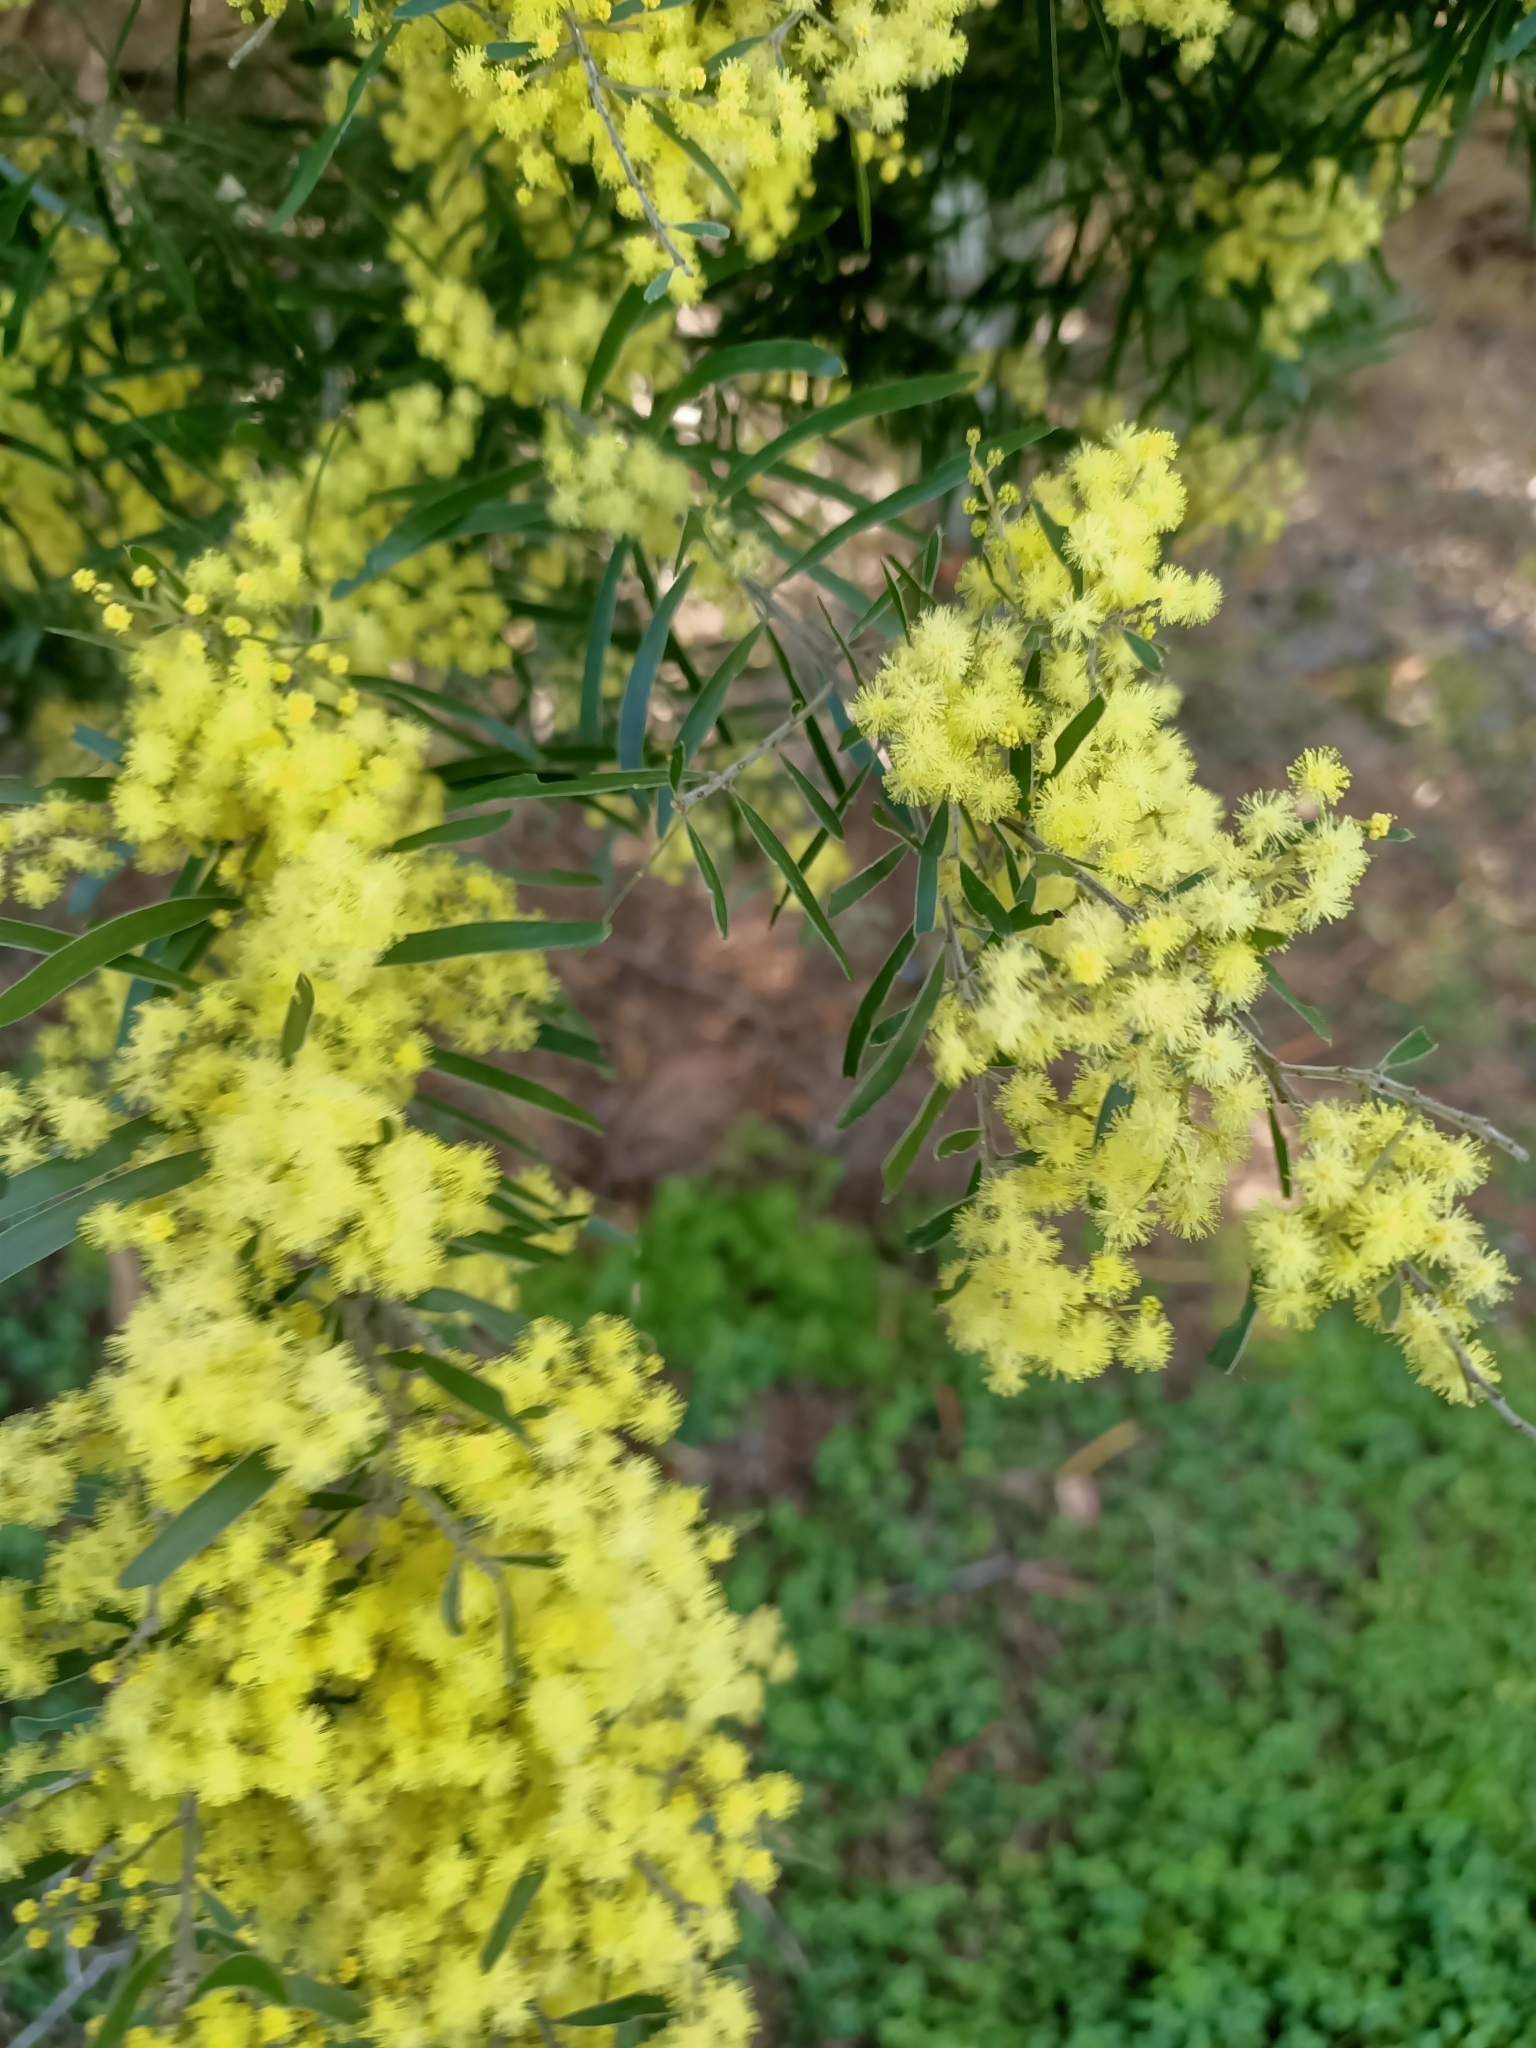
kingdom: Plantae
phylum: Tracheophyta
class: Magnoliopsida
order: Fabales
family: Fabaceae
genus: Acacia
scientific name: Acacia fimbriata
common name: Brisbane golden wattle
